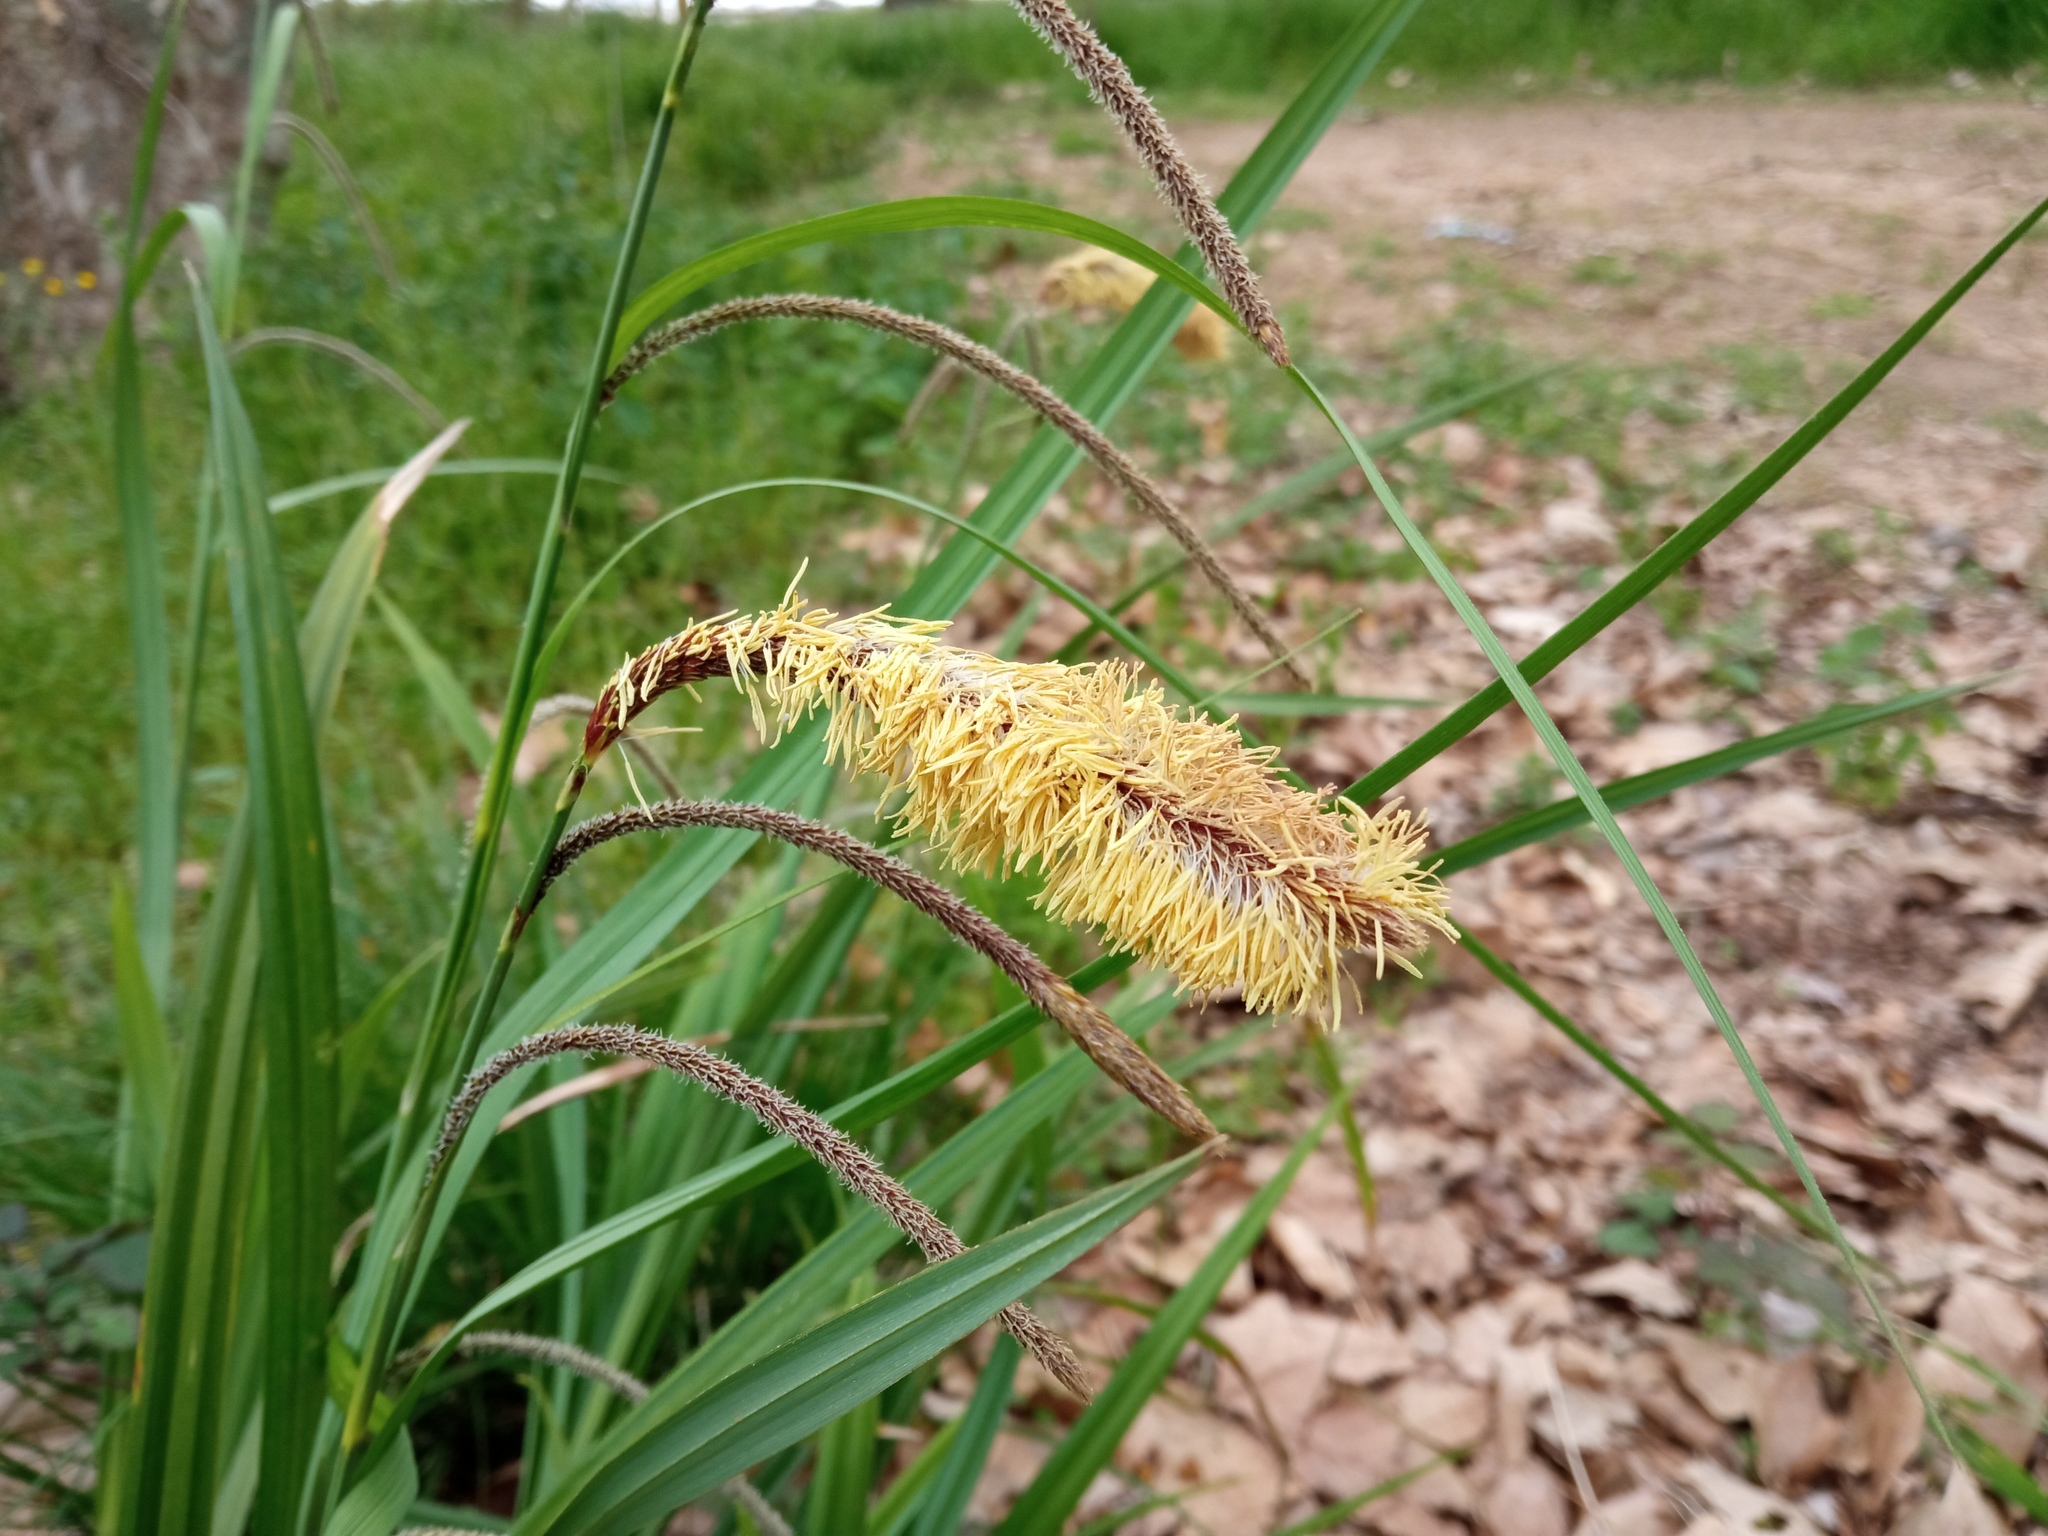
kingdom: Plantae
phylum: Tracheophyta
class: Liliopsida
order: Poales
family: Cyperaceae
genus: Carex
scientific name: Carex pendula
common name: Pendulous sedge
